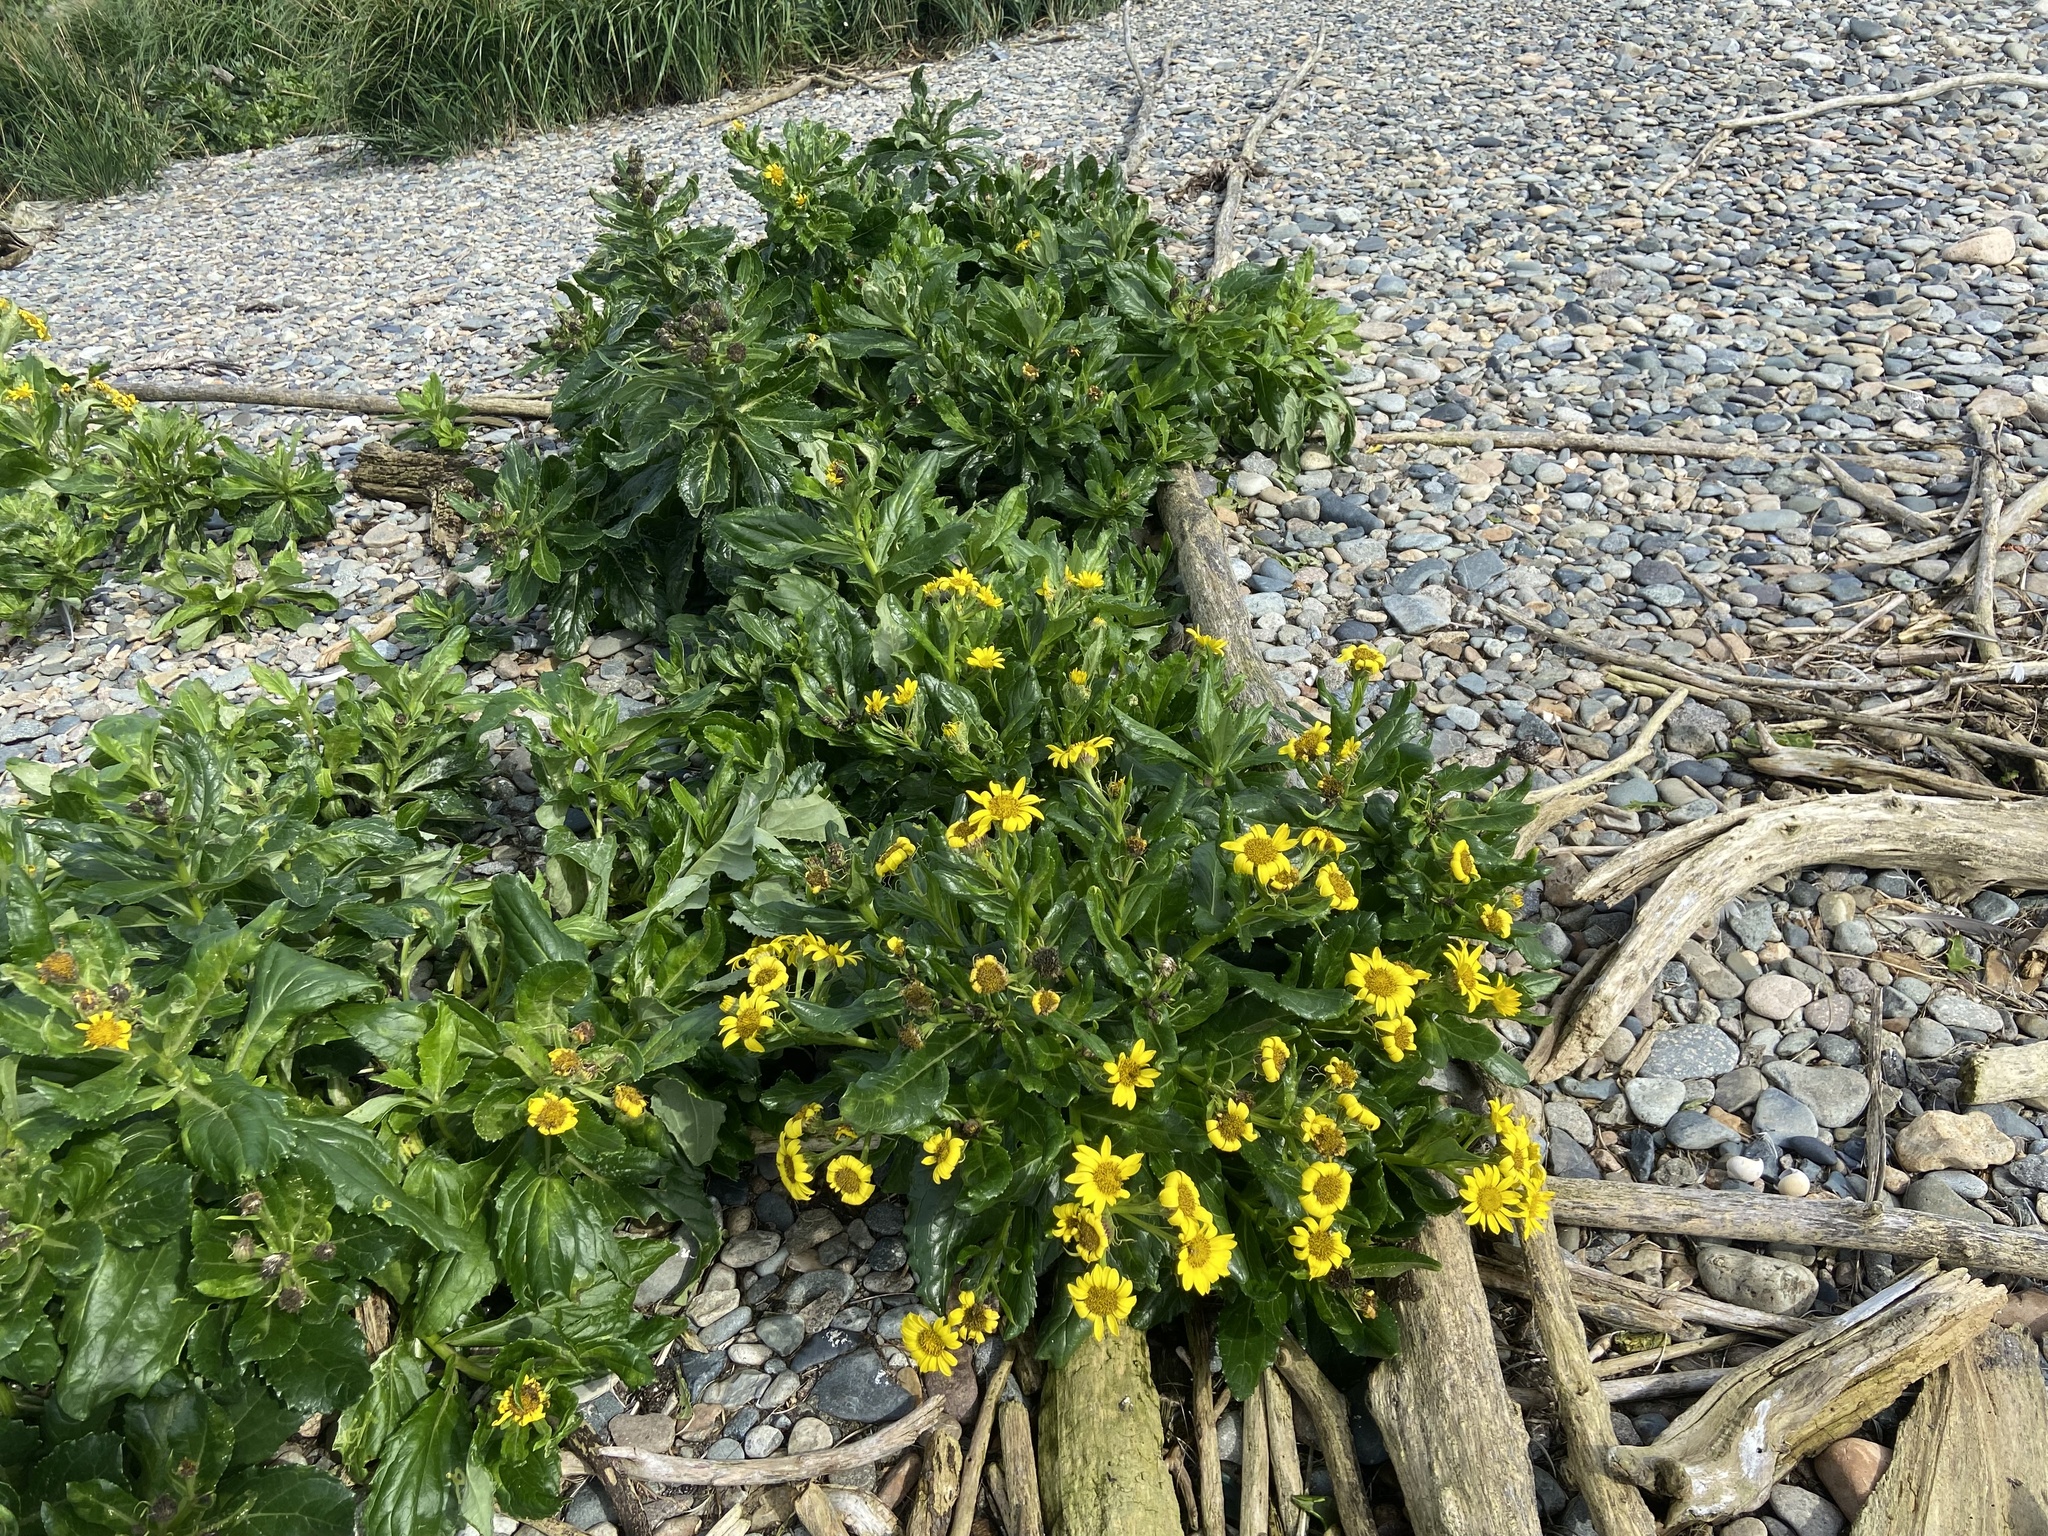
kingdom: Plantae
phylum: Tracheophyta
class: Magnoliopsida
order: Asterales
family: Asteraceae
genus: Jacobaea
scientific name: Jacobaea pseudoarnica
